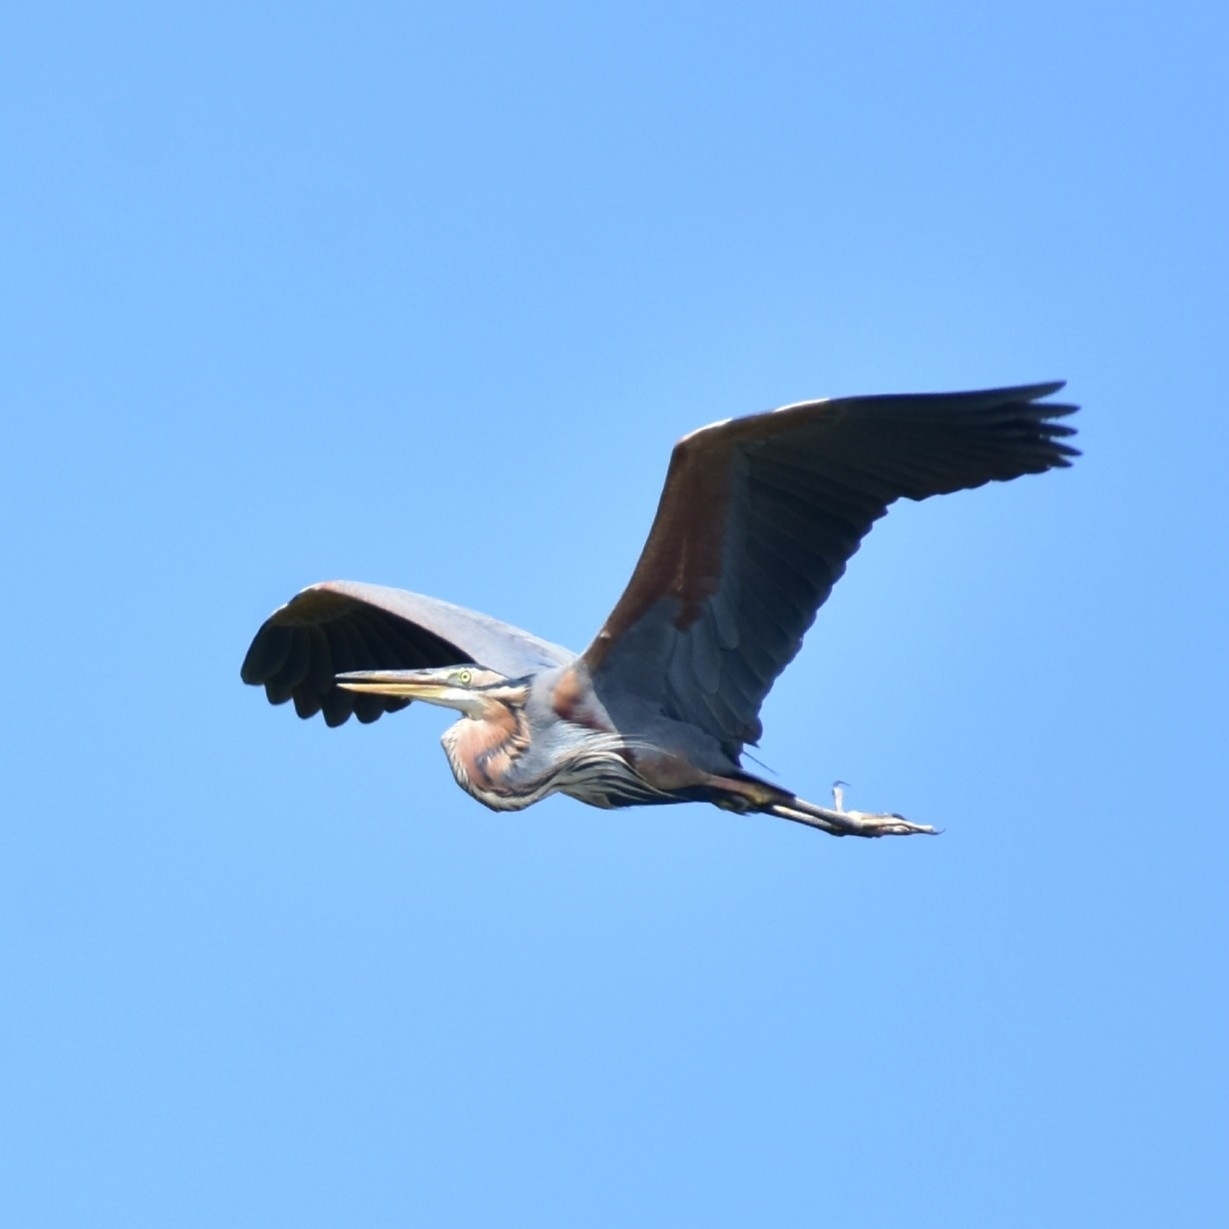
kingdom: Animalia
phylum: Chordata
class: Aves
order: Pelecaniformes
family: Ardeidae
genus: Ardea
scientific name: Ardea purpurea
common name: Purple heron
